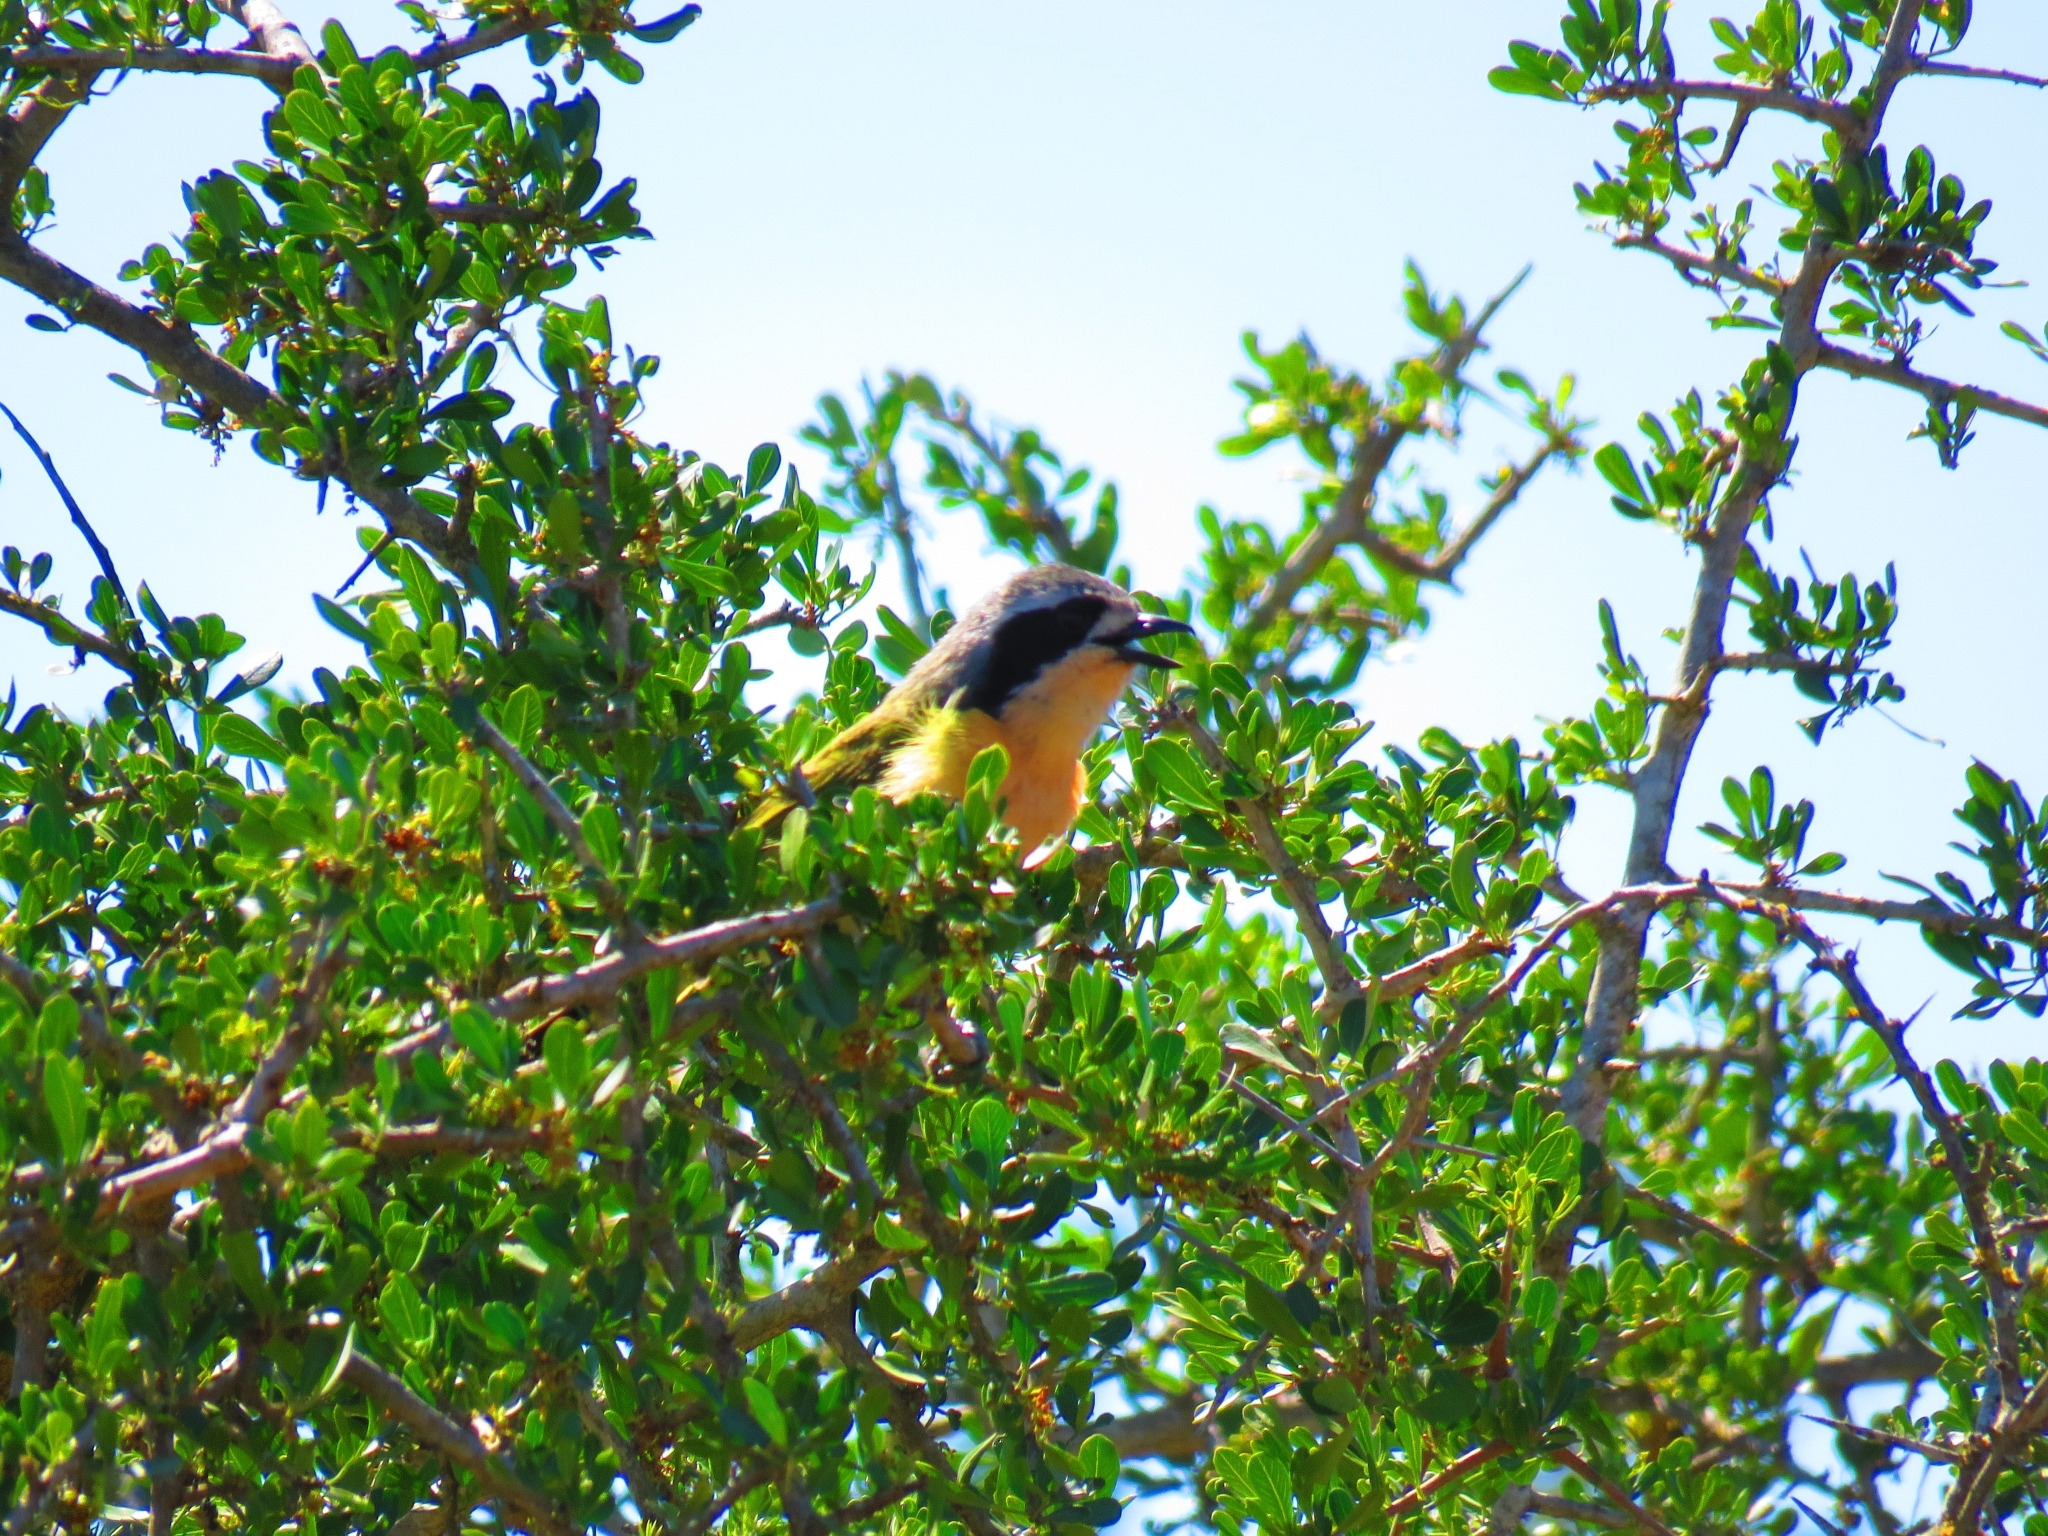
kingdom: Animalia
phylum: Chordata
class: Aves
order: Passeriformes
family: Malaconotidae
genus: Chlorophoneus
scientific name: Chlorophoneus olivaceus
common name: Olive bushshrike
